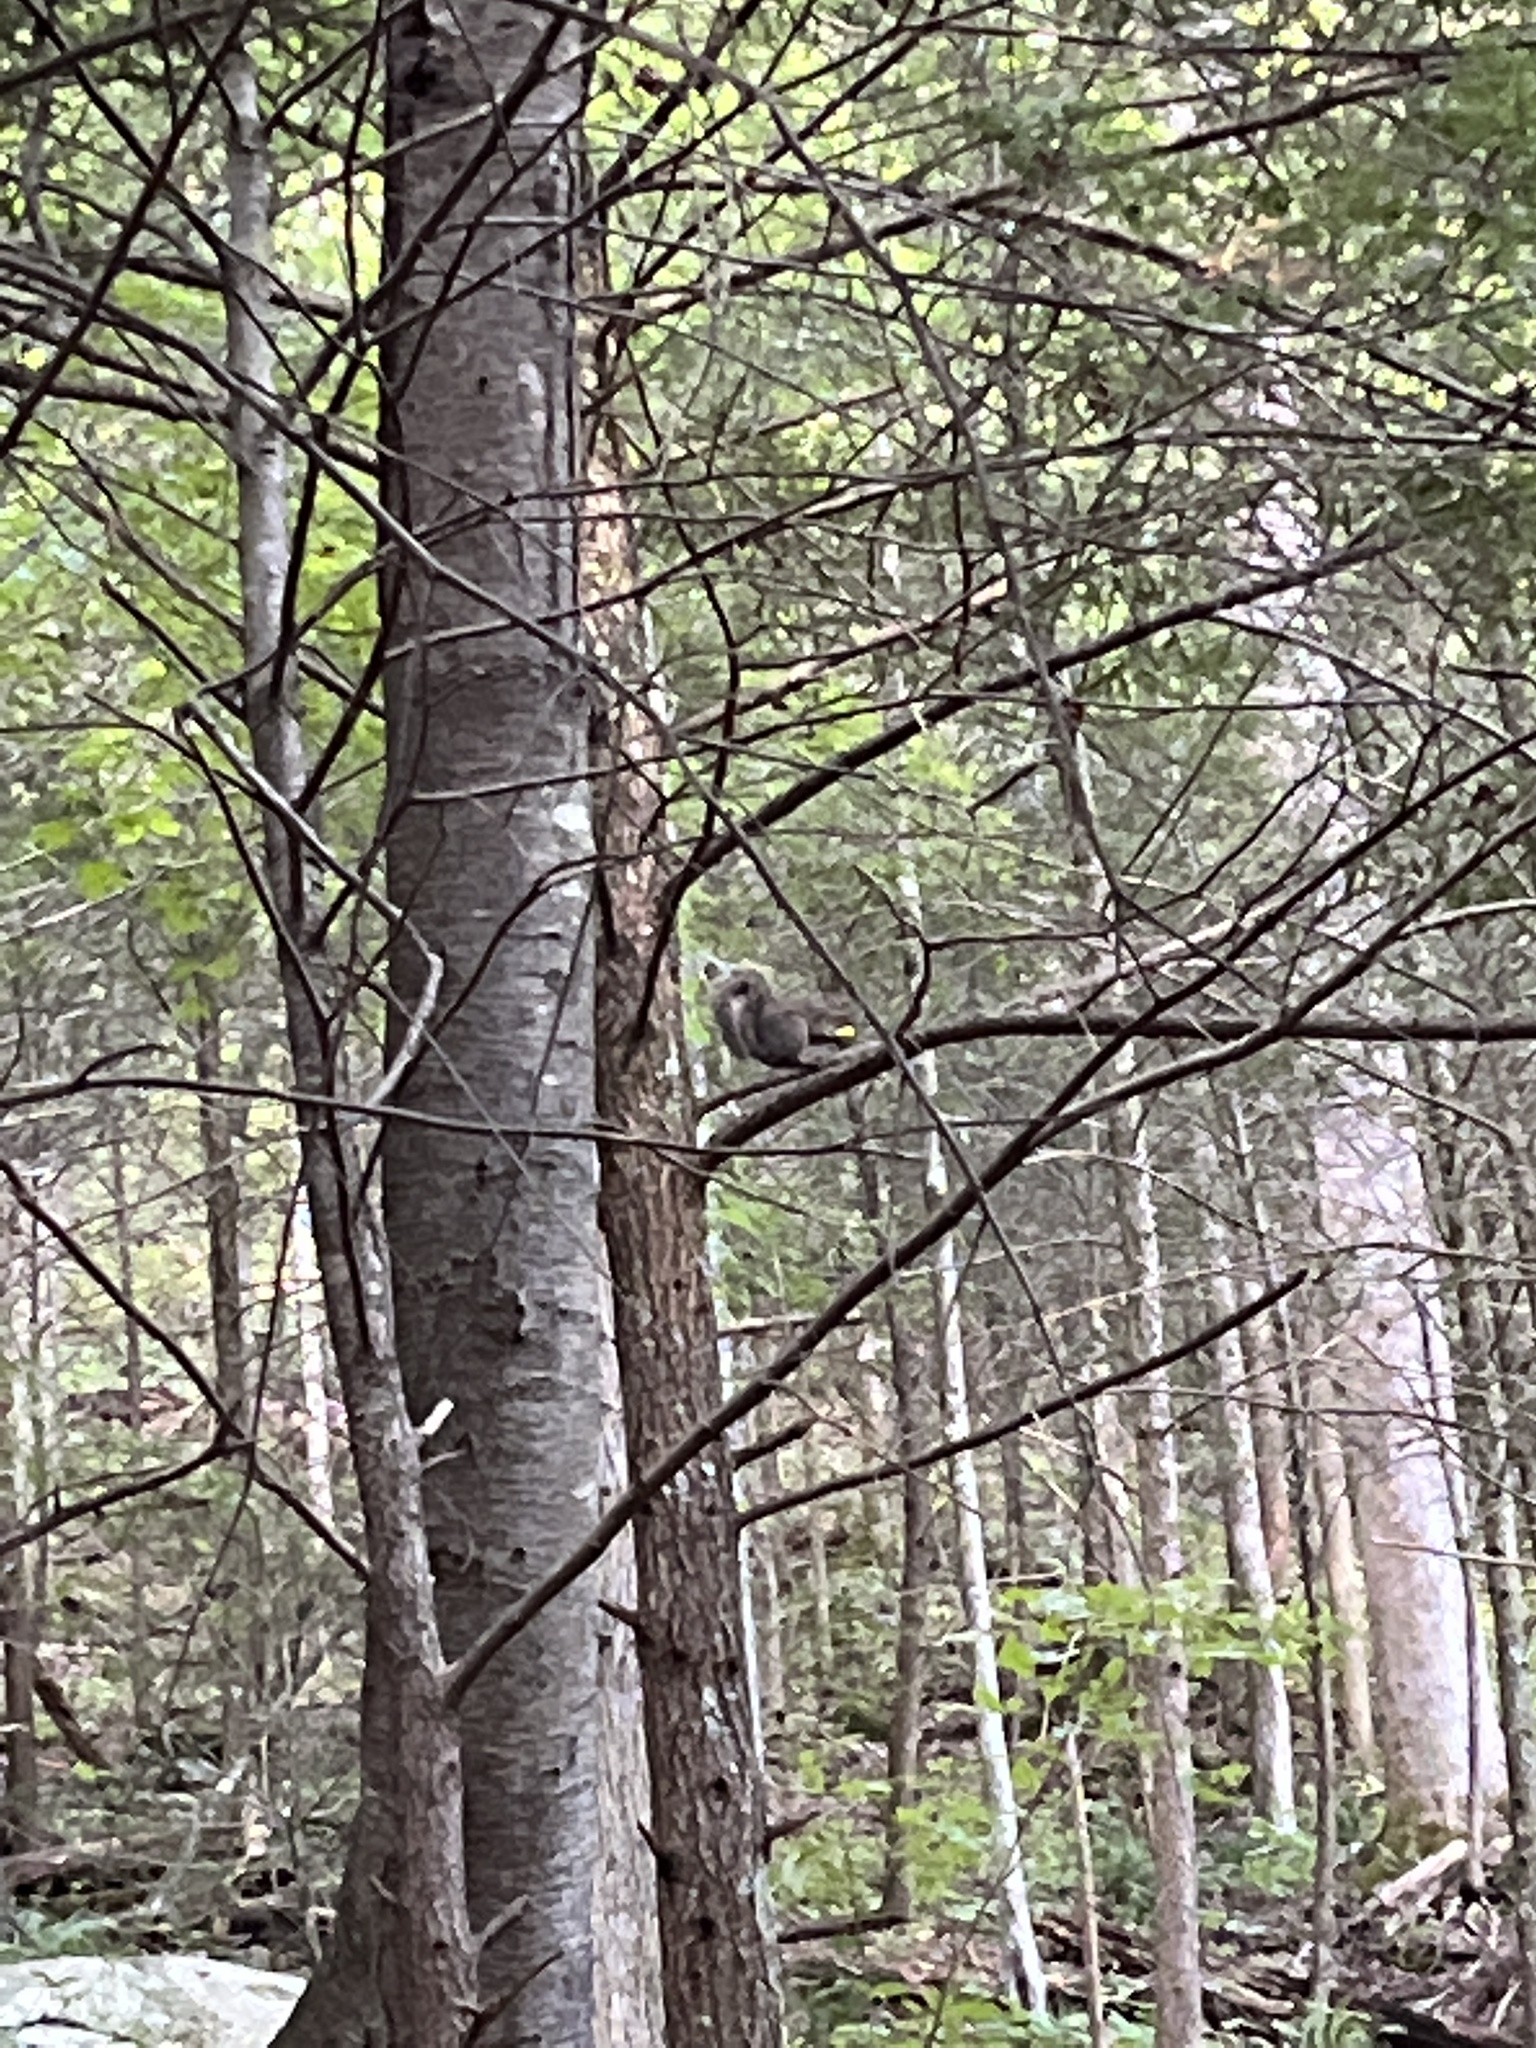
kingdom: Animalia
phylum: Chordata
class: Mammalia
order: Rodentia
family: Sciuridae
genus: Sciurus
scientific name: Sciurus carolinensis
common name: Eastern gray squirrel
